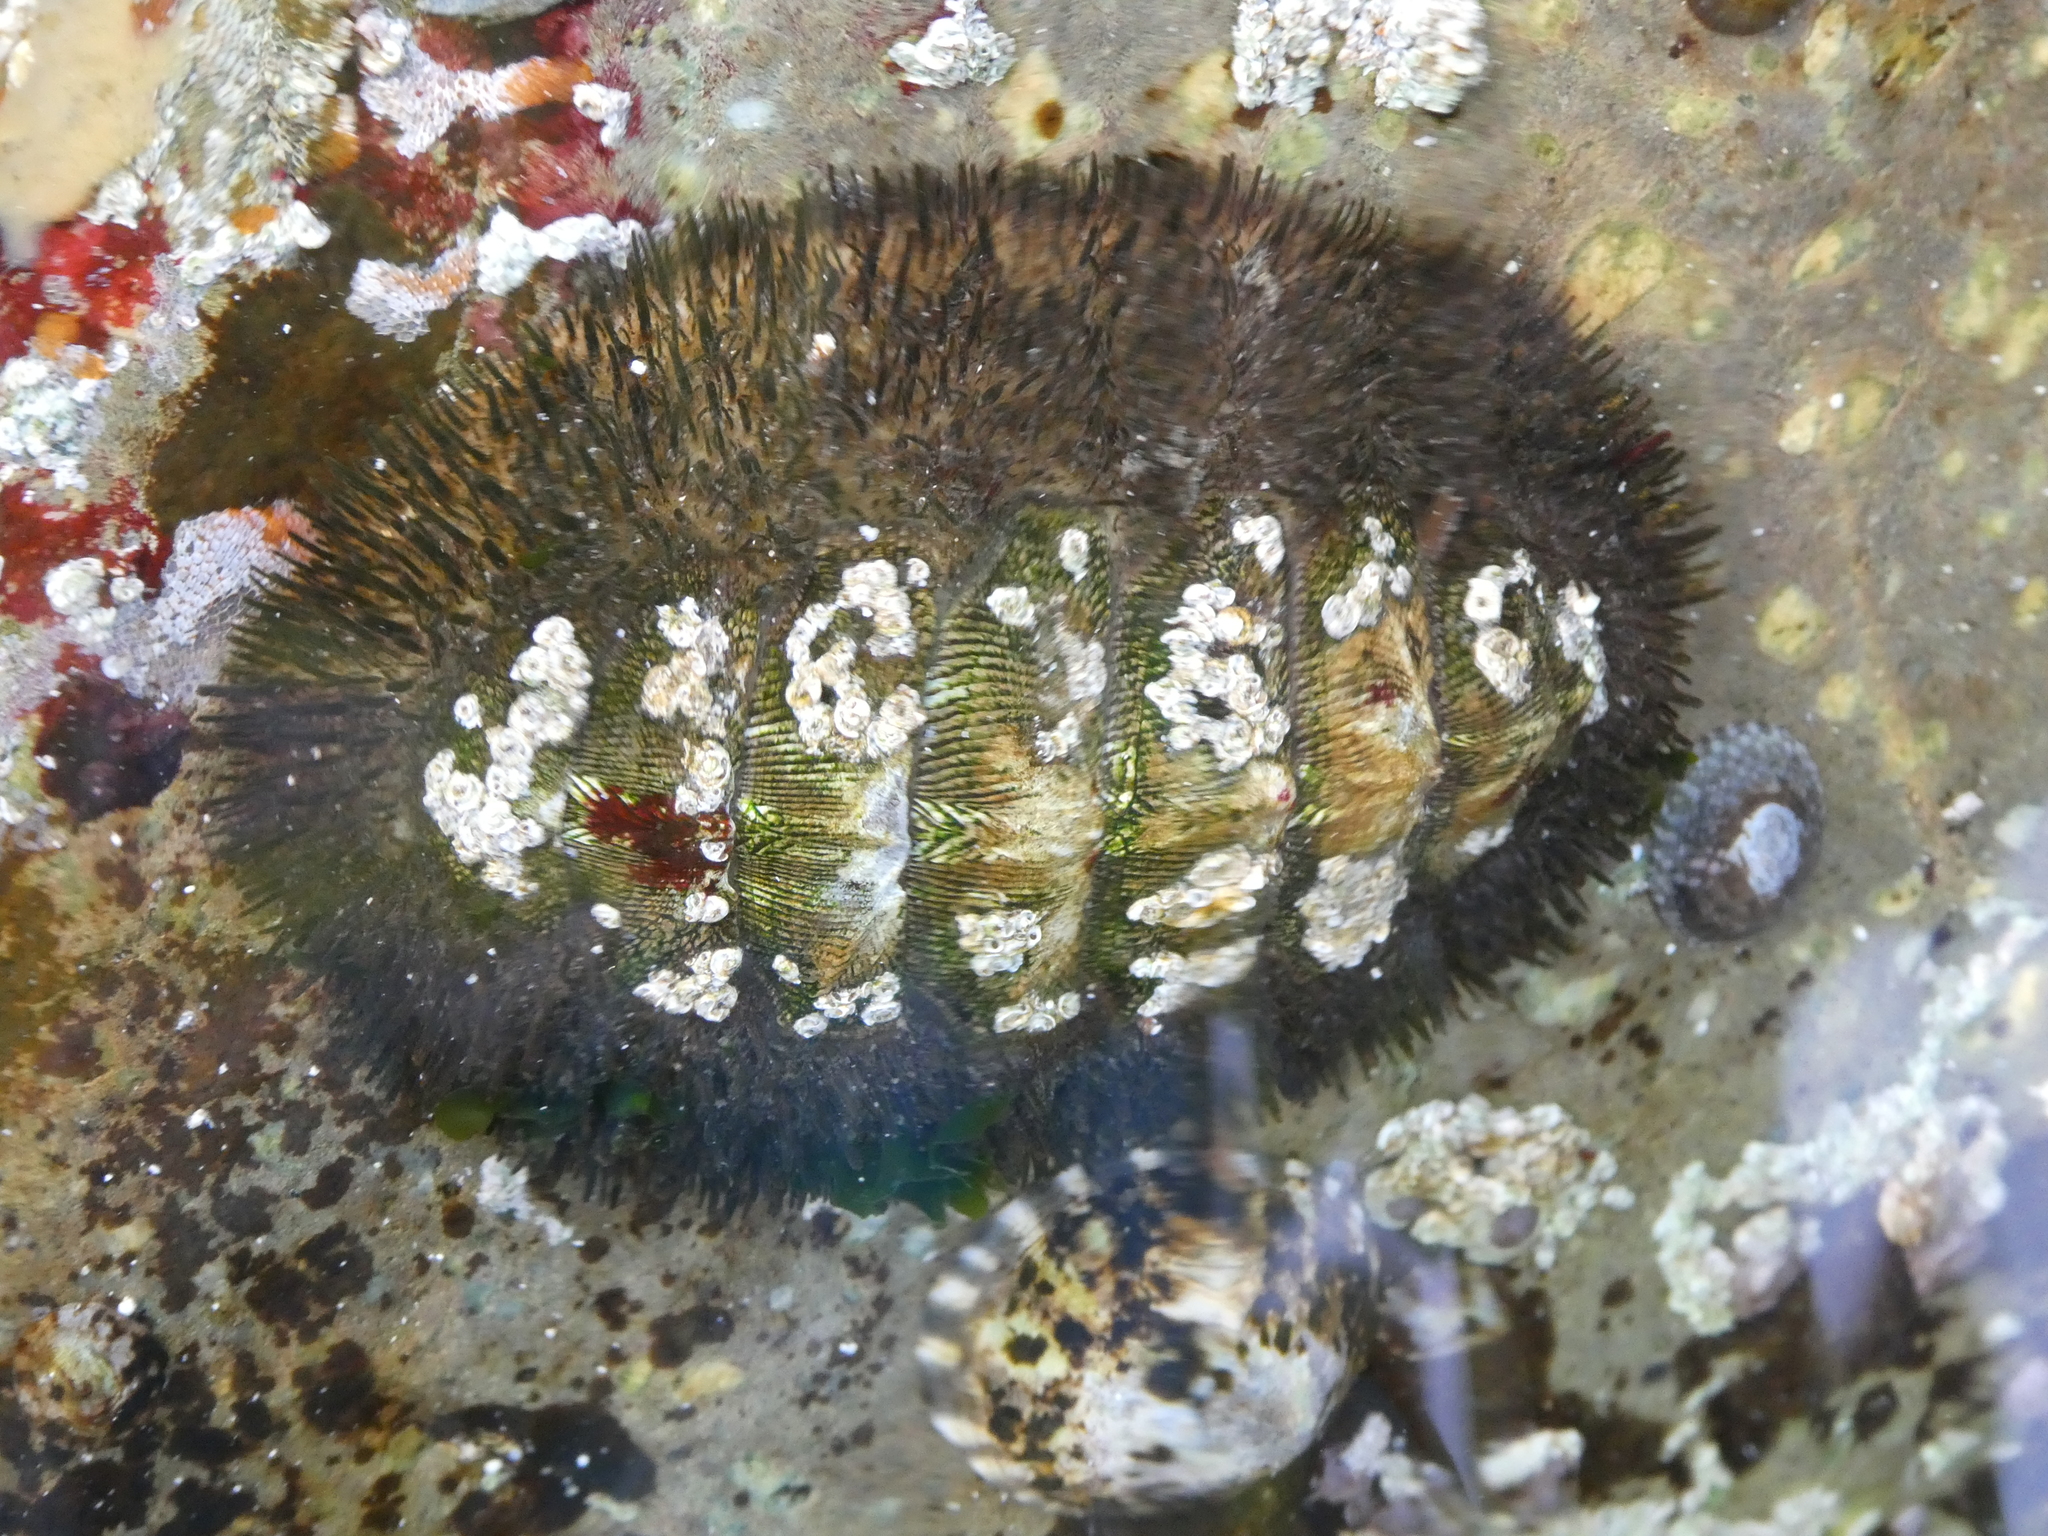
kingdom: Animalia
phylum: Mollusca
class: Polyplacophora
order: Chitonida
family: Mopaliidae
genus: Mopalia
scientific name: Mopalia muscosa
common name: Mossy chiton
